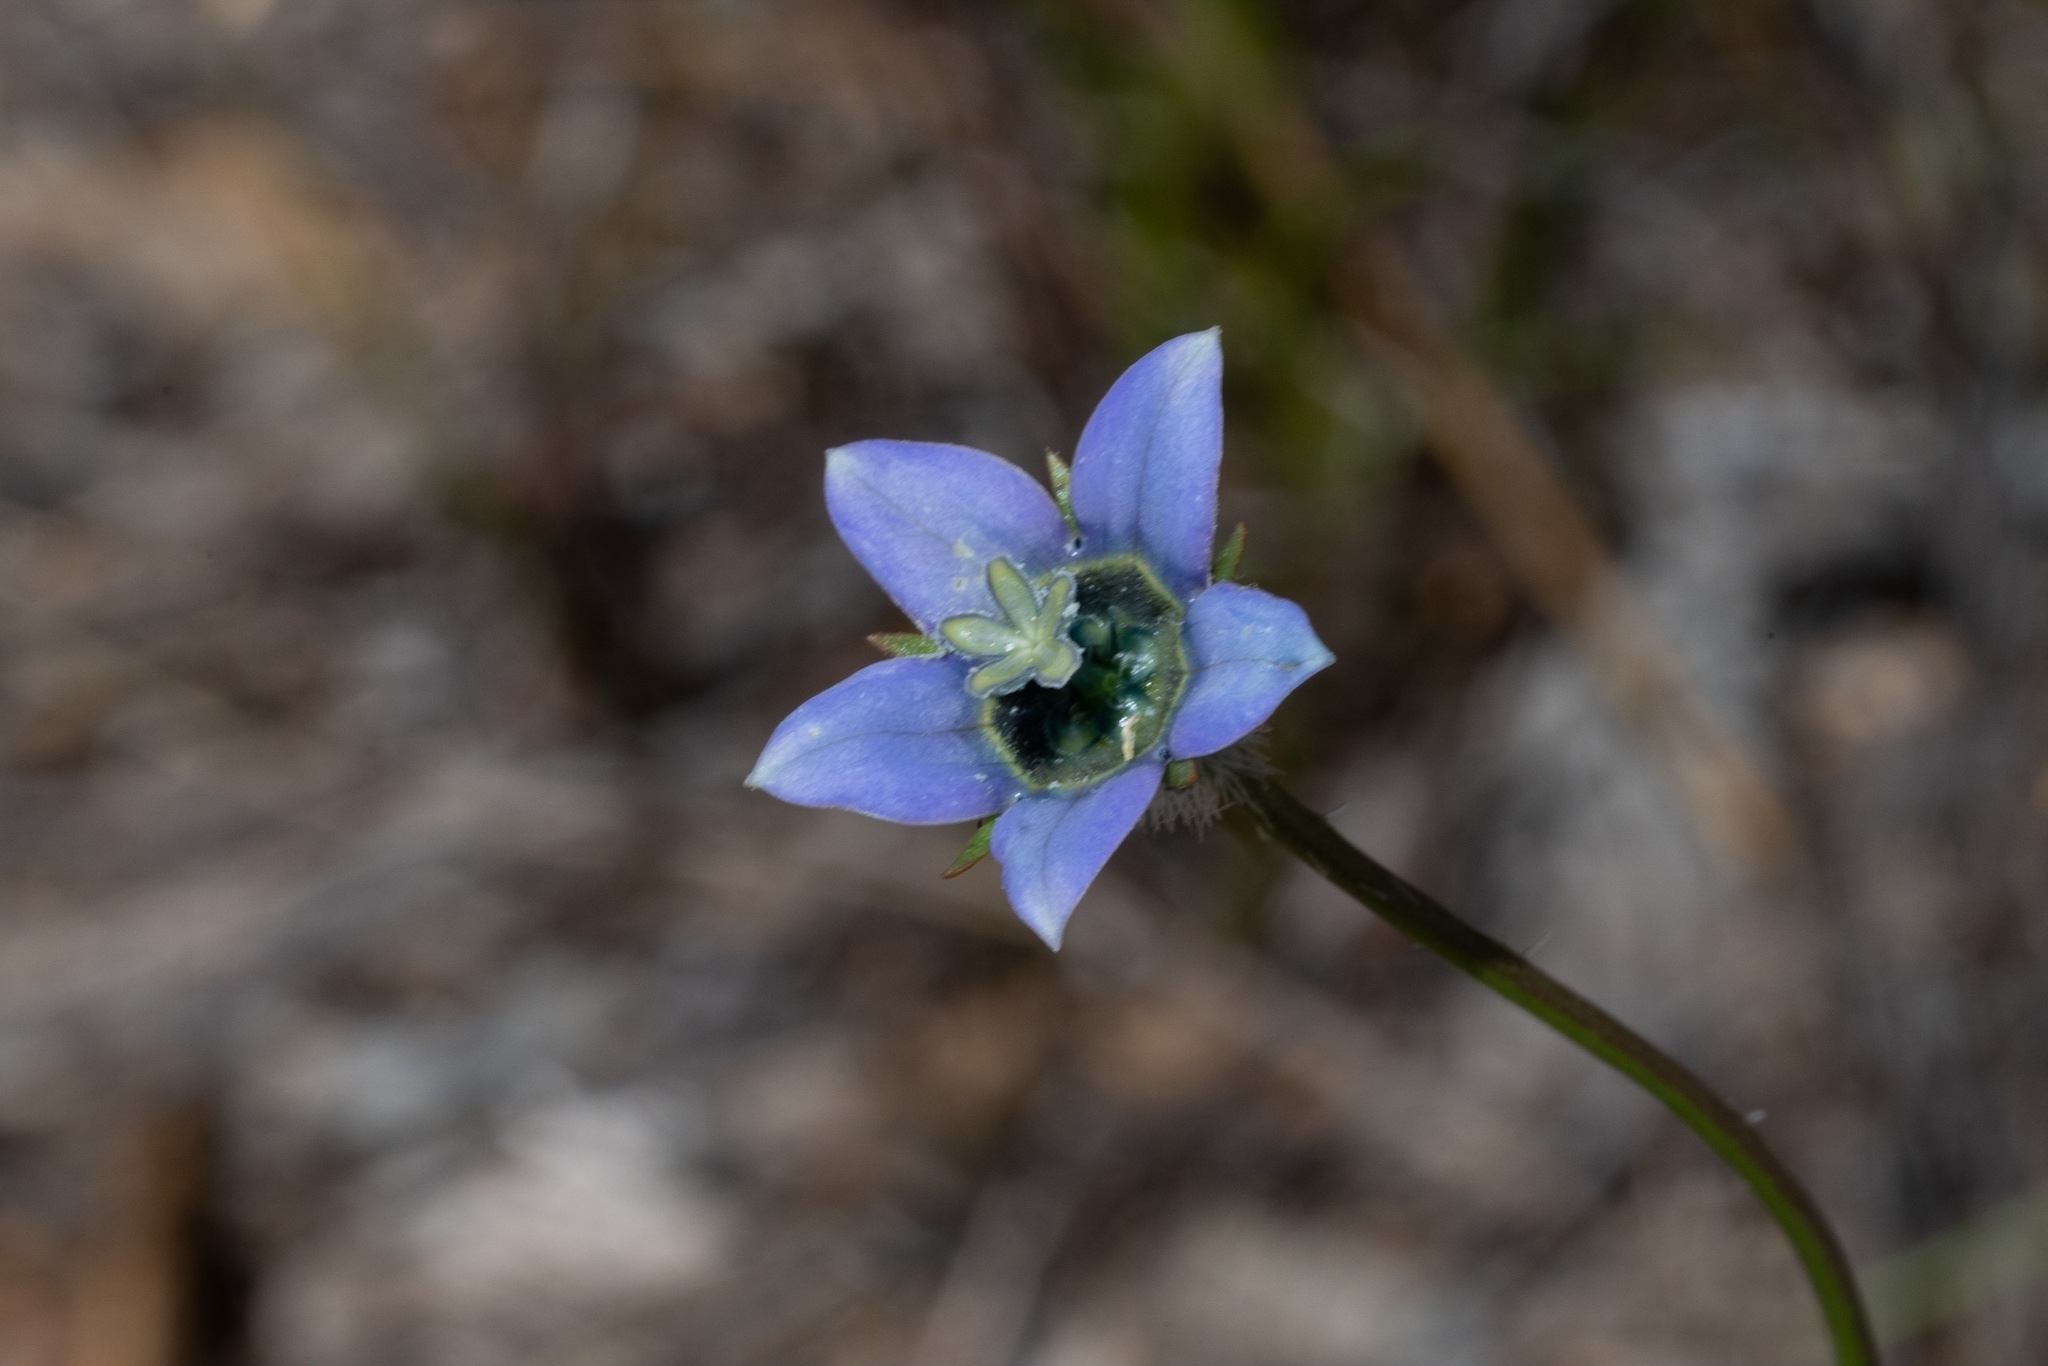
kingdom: Plantae
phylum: Tracheophyta
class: Magnoliopsida
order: Asterales
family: Campanulaceae
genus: Wahlenbergia
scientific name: Wahlenbergia capensis
